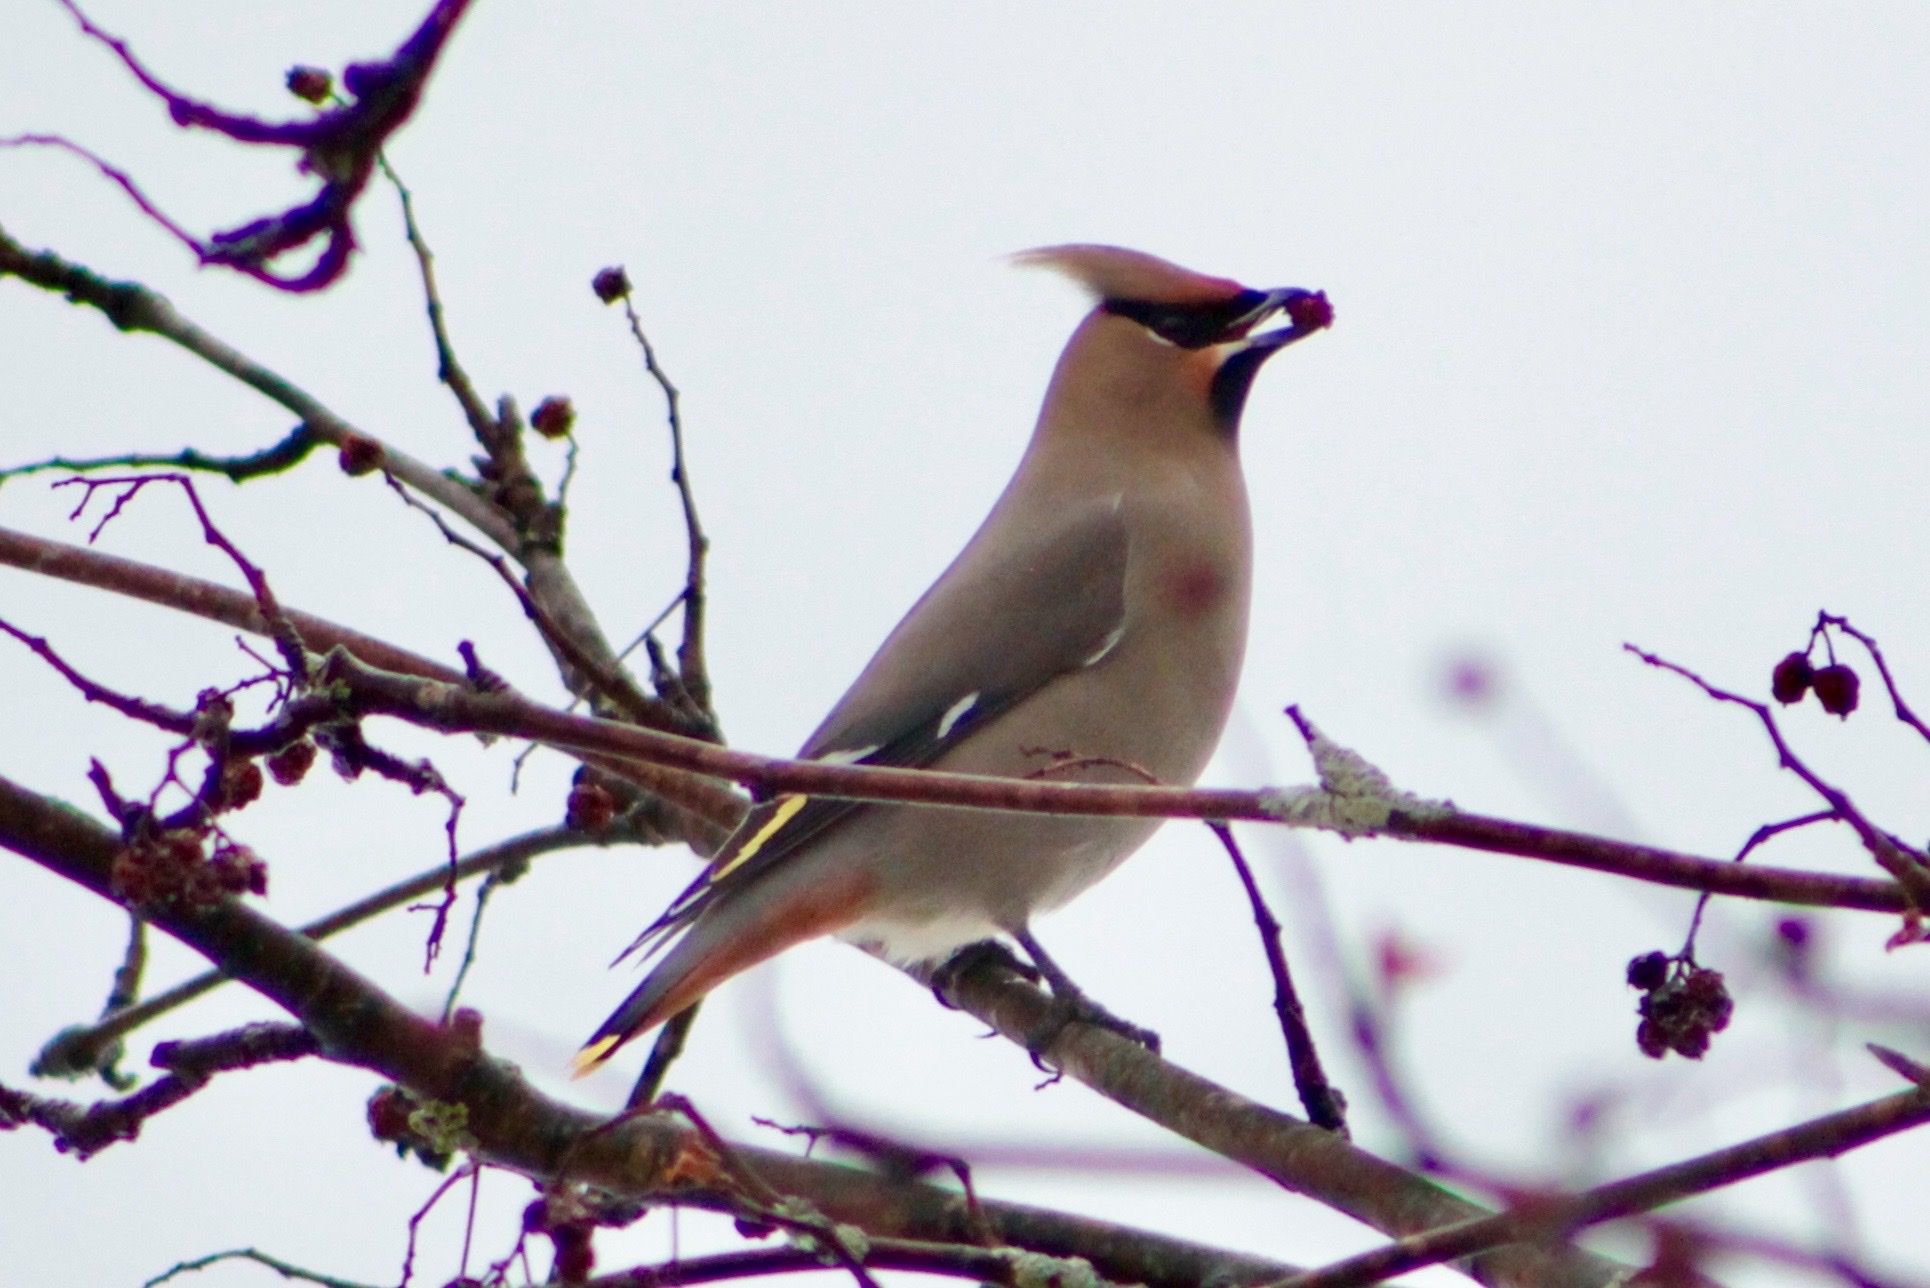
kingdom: Animalia
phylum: Chordata
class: Aves
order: Passeriformes
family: Bombycillidae
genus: Bombycilla
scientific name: Bombycilla garrulus
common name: Bohemian waxwing
